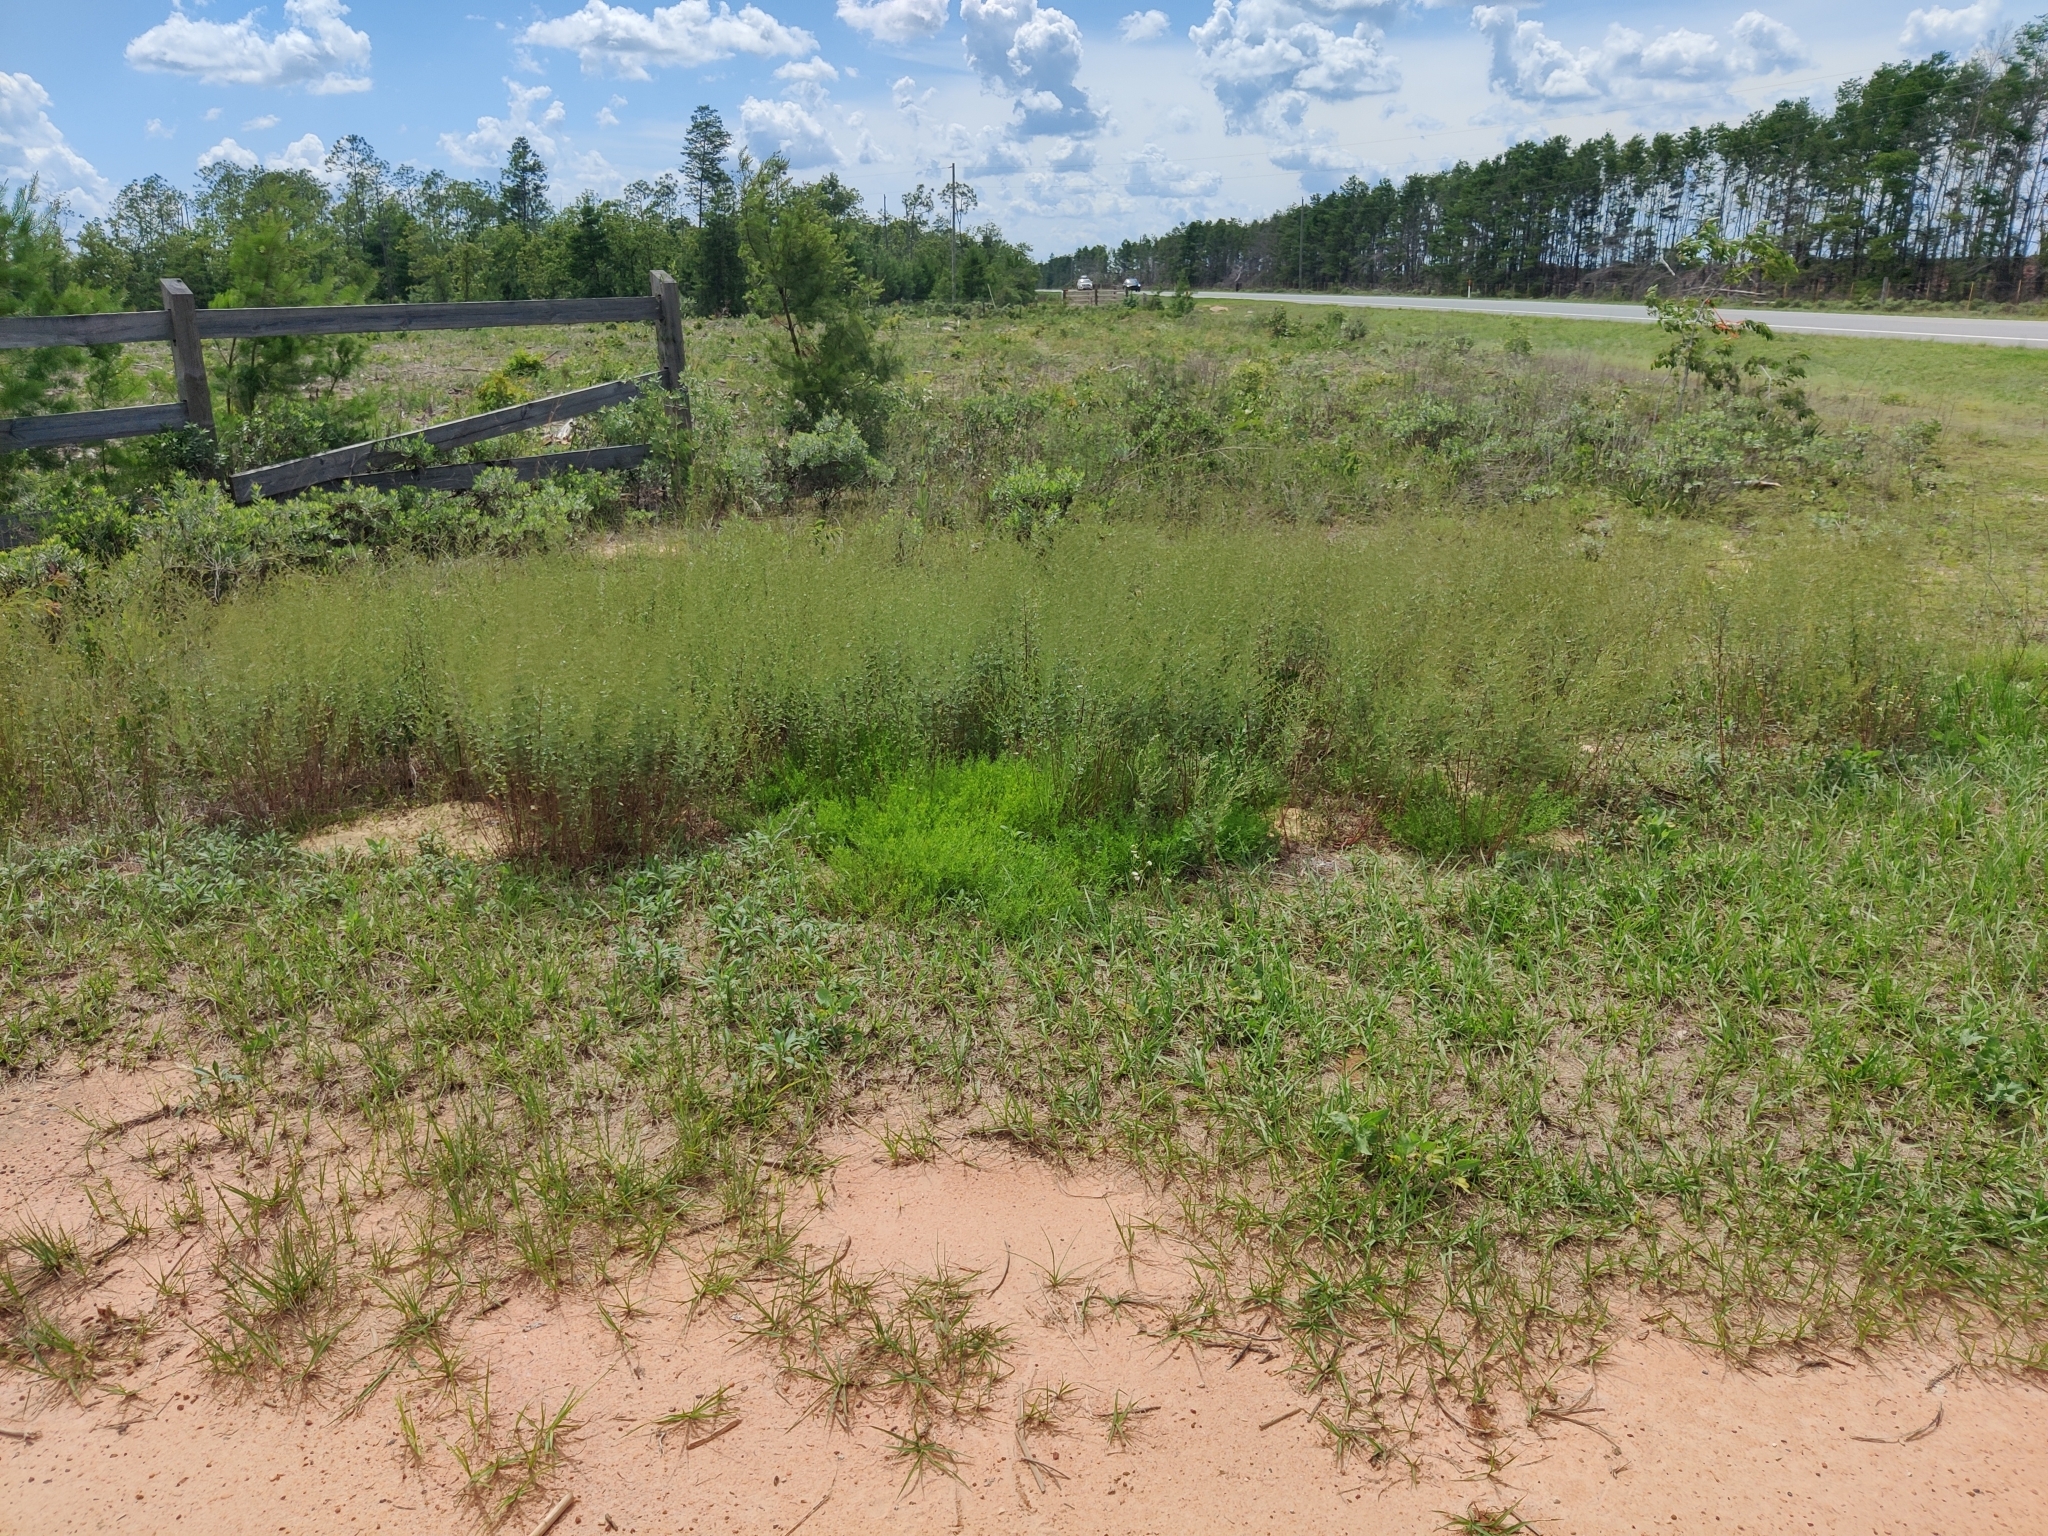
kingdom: Plantae
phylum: Tracheophyta
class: Magnoliopsida
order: Malvales
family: Cistaceae
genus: Lechea
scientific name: Lechea mucronata
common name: Hairy pinweed
